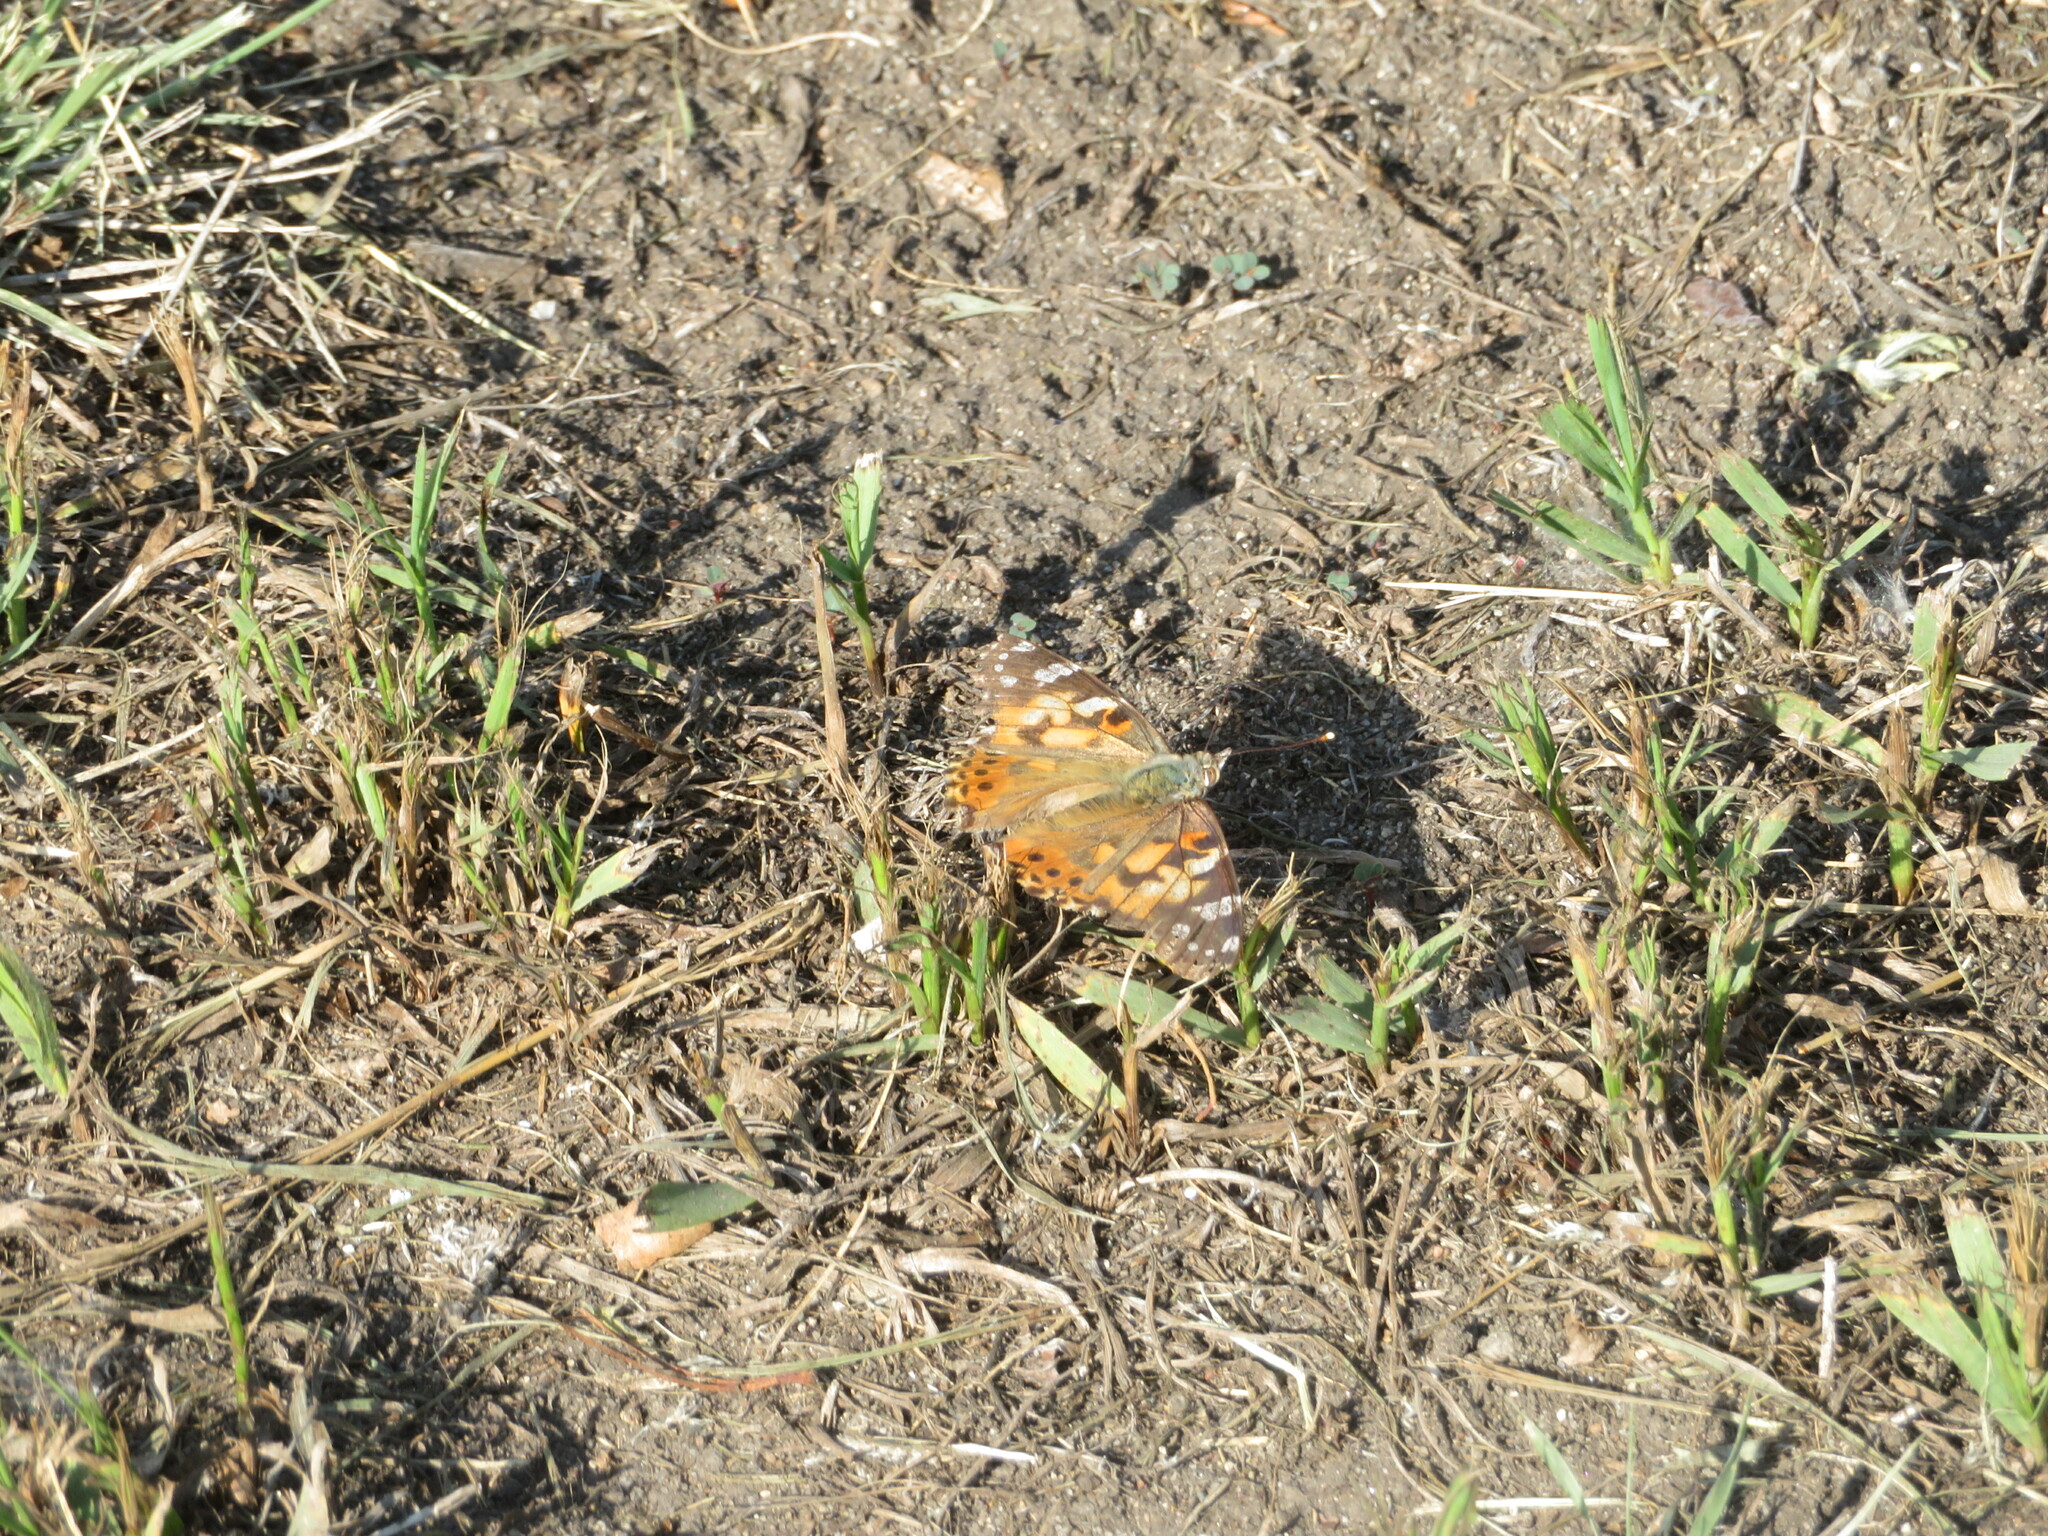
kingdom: Animalia
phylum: Arthropoda
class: Insecta
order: Lepidoptera
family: Nymphalidae
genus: Vanessa
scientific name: Vanessa cardui
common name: Painted lady
